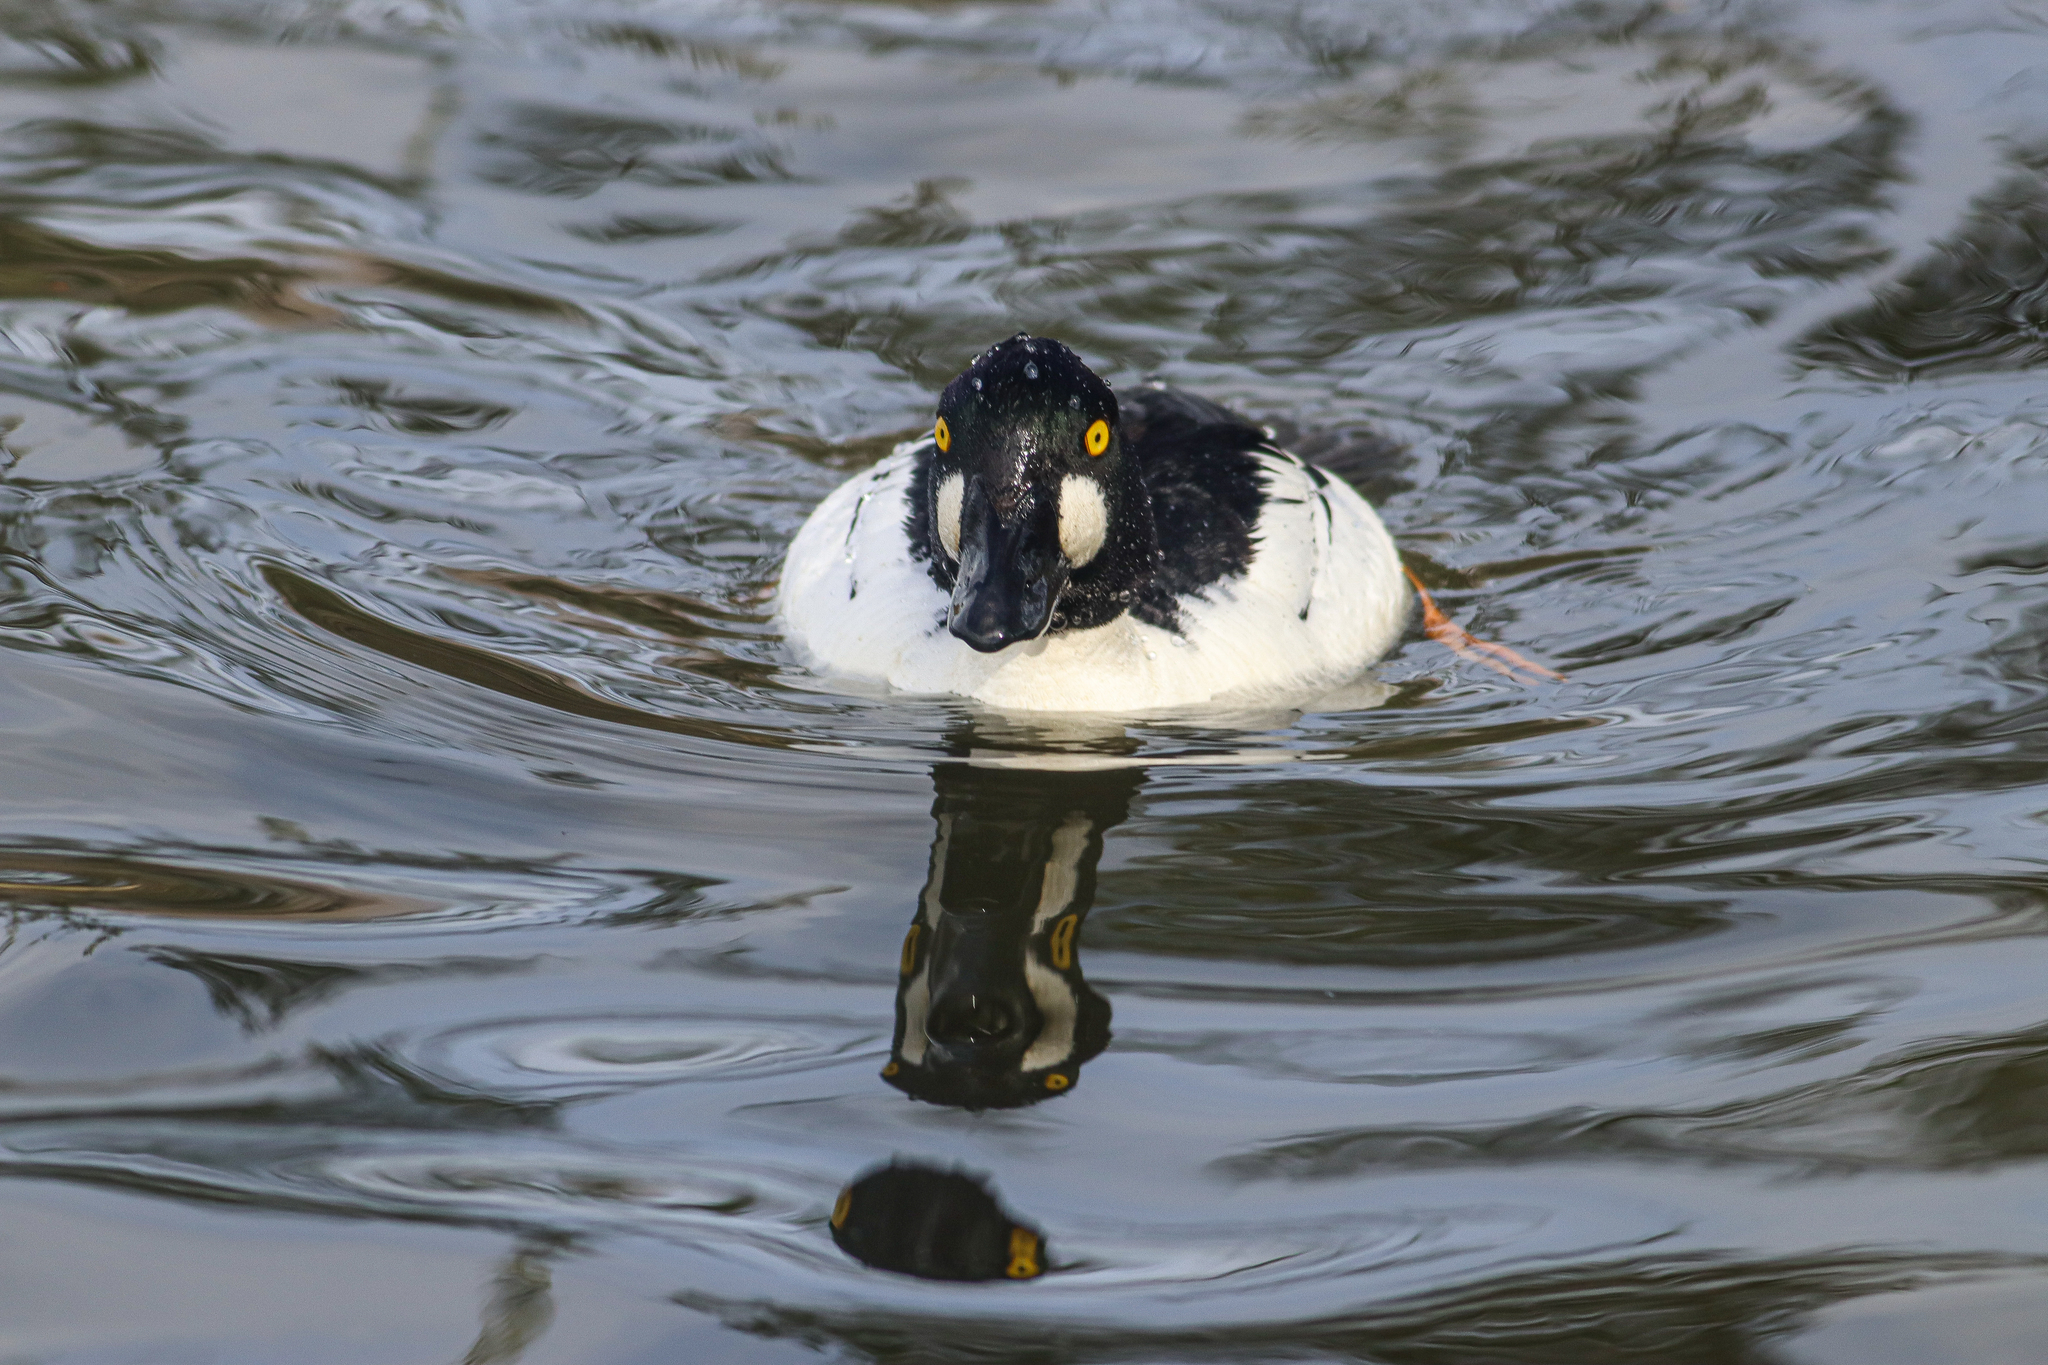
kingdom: Animalia
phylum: Chordata
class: Aves
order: Anseriformes
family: Anatidae
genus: Bucephala
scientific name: Bucephala clangula
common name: Common goldeneye
